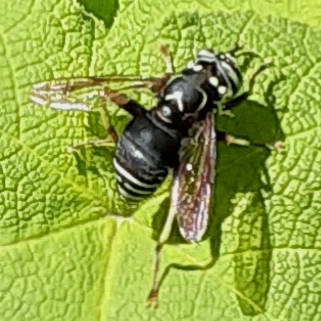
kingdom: Animalia
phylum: Arthropoda
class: Insecta
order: Diptera
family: Syrphidae
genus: Spilomyia
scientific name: Spilomyia fusca
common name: Bald-faced hornet fly
